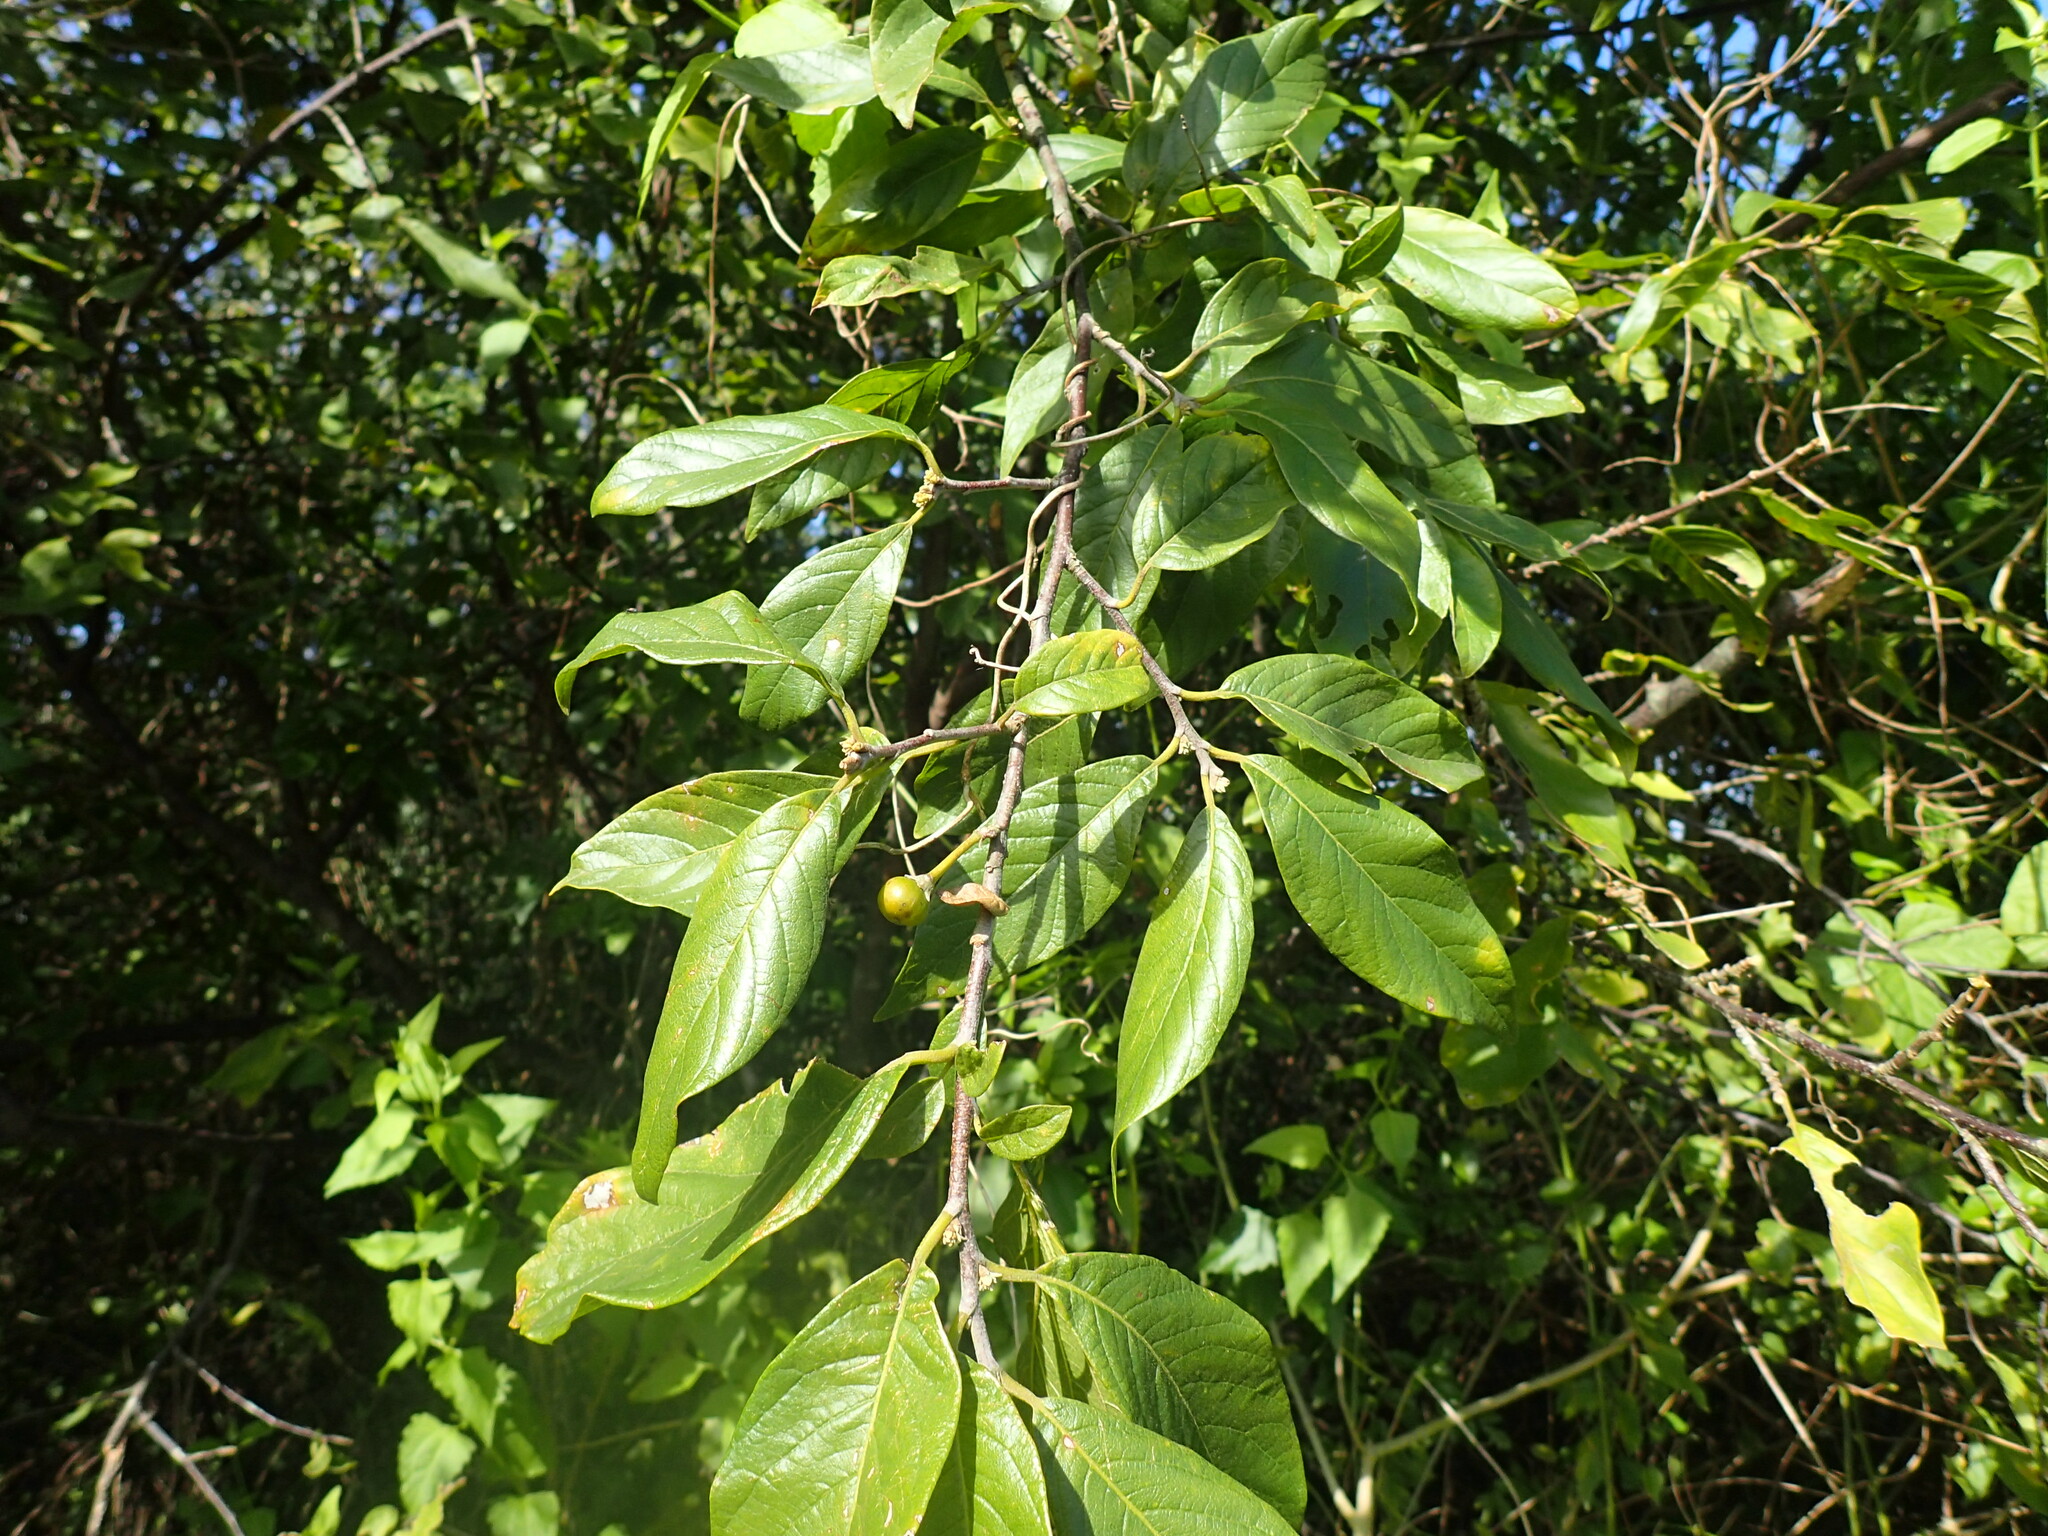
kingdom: Plantae
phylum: Tracheophyta
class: Magnoliopsida
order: Sapindales
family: Meliaceae
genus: Turraea
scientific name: Turraea floribunda
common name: Honeysuckle tree
